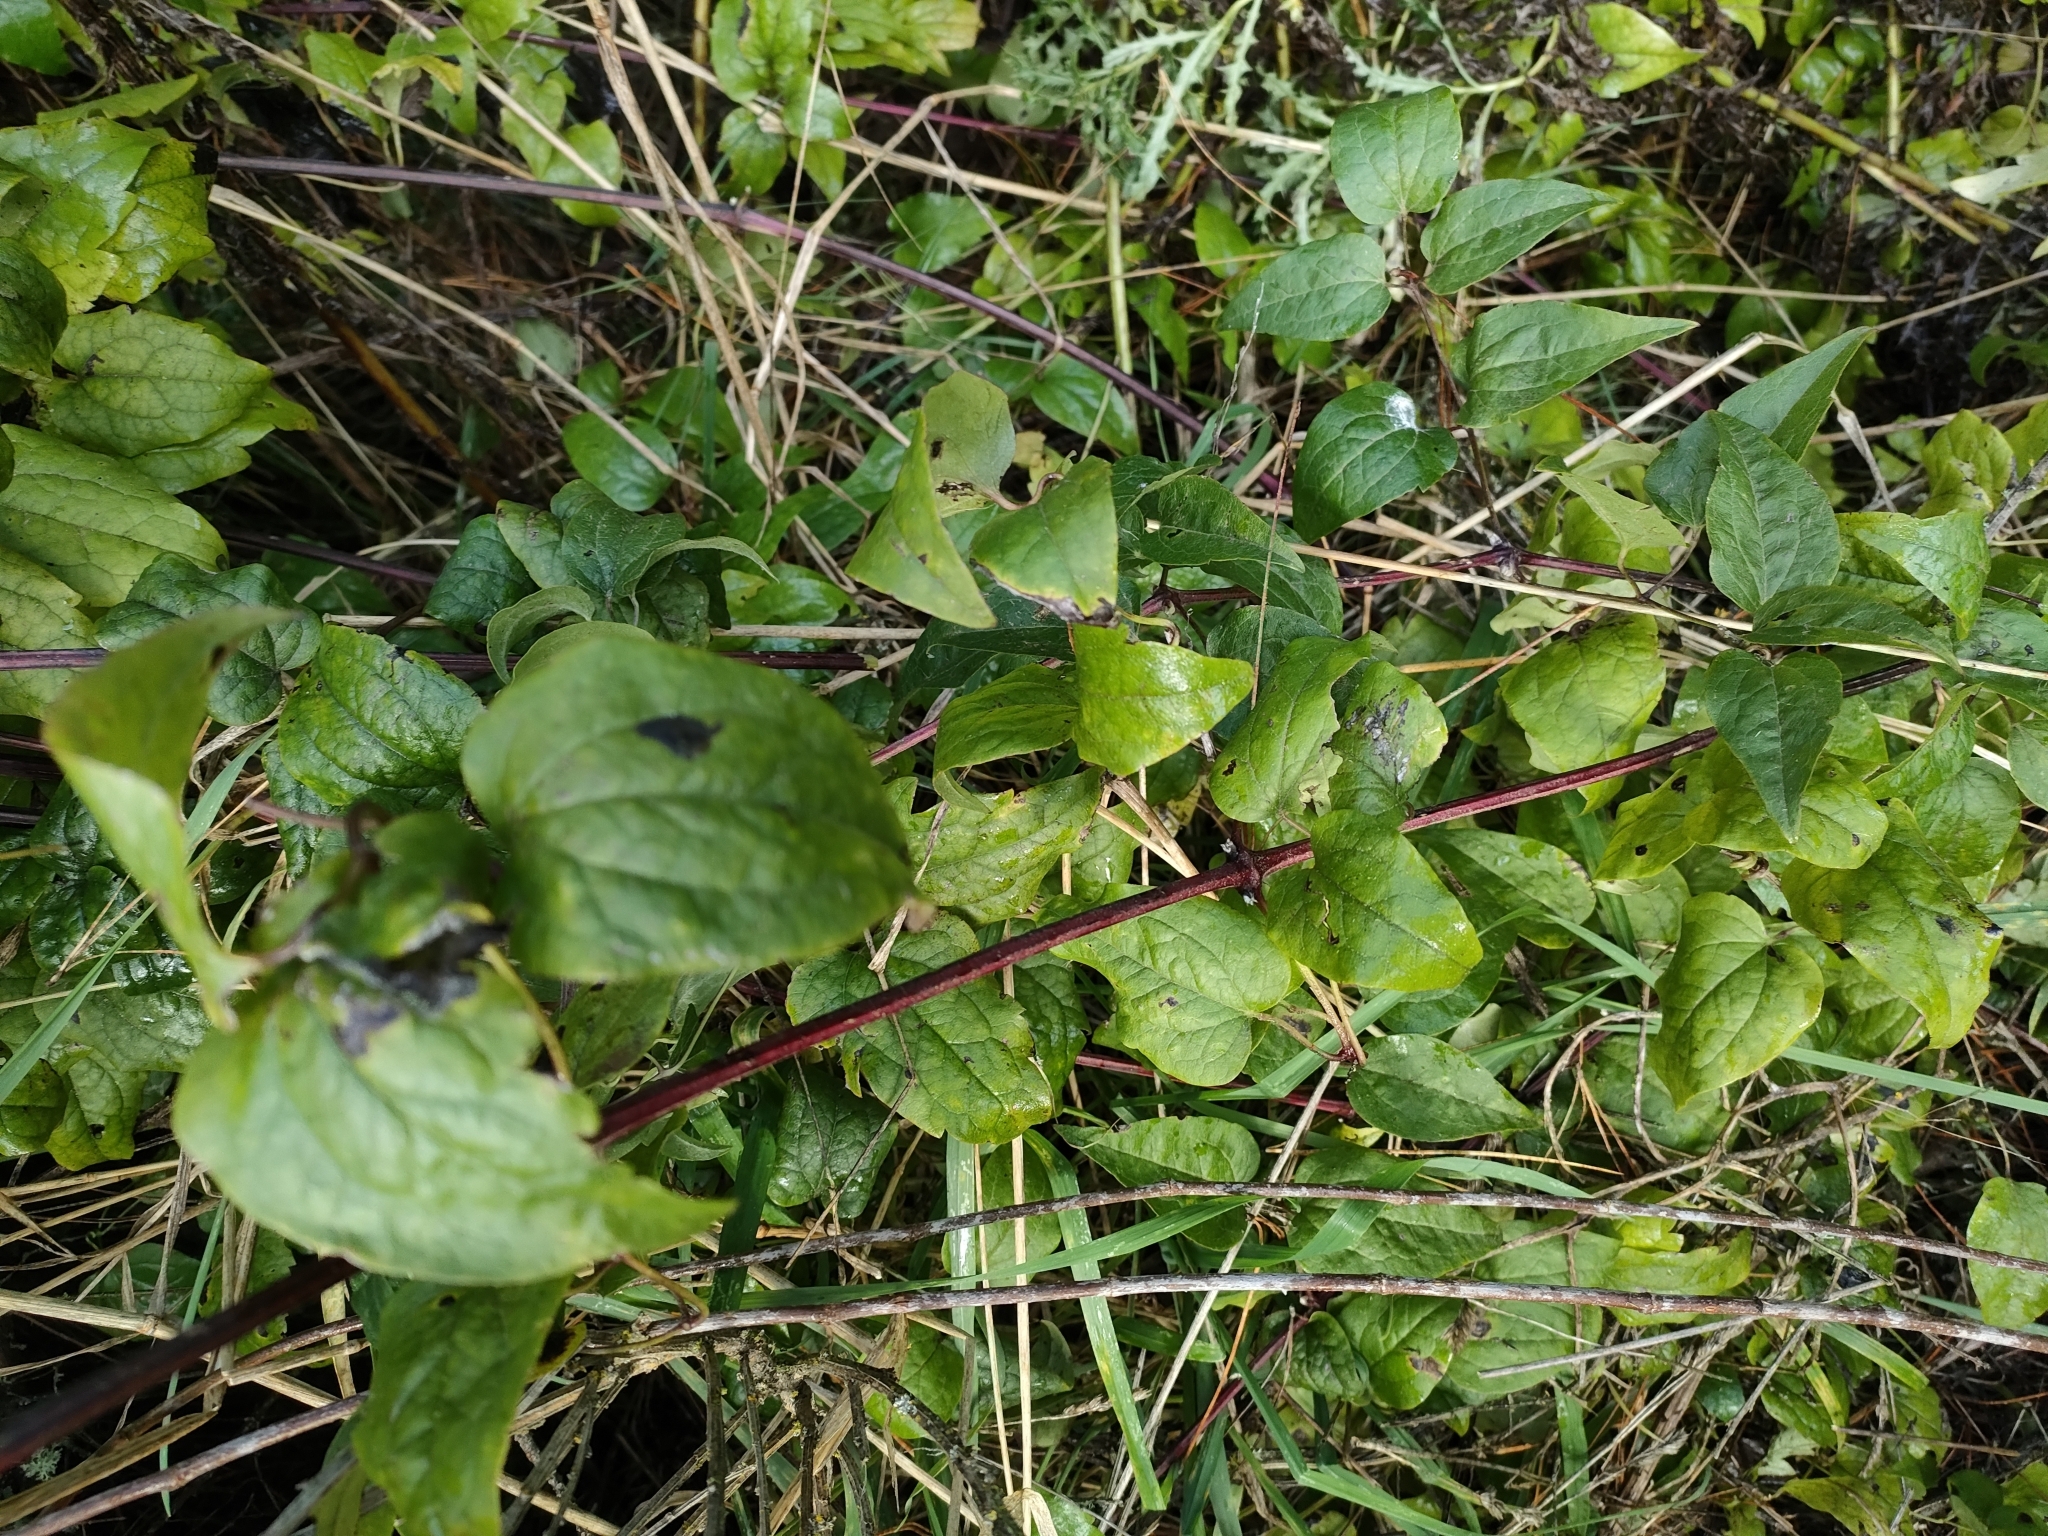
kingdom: Plantae
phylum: Tracheophyta
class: Magnoliopsida
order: Ranunculales
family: Ranunculaceae
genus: Clematis
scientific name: Clematis vitalba
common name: Evergreen clematis
